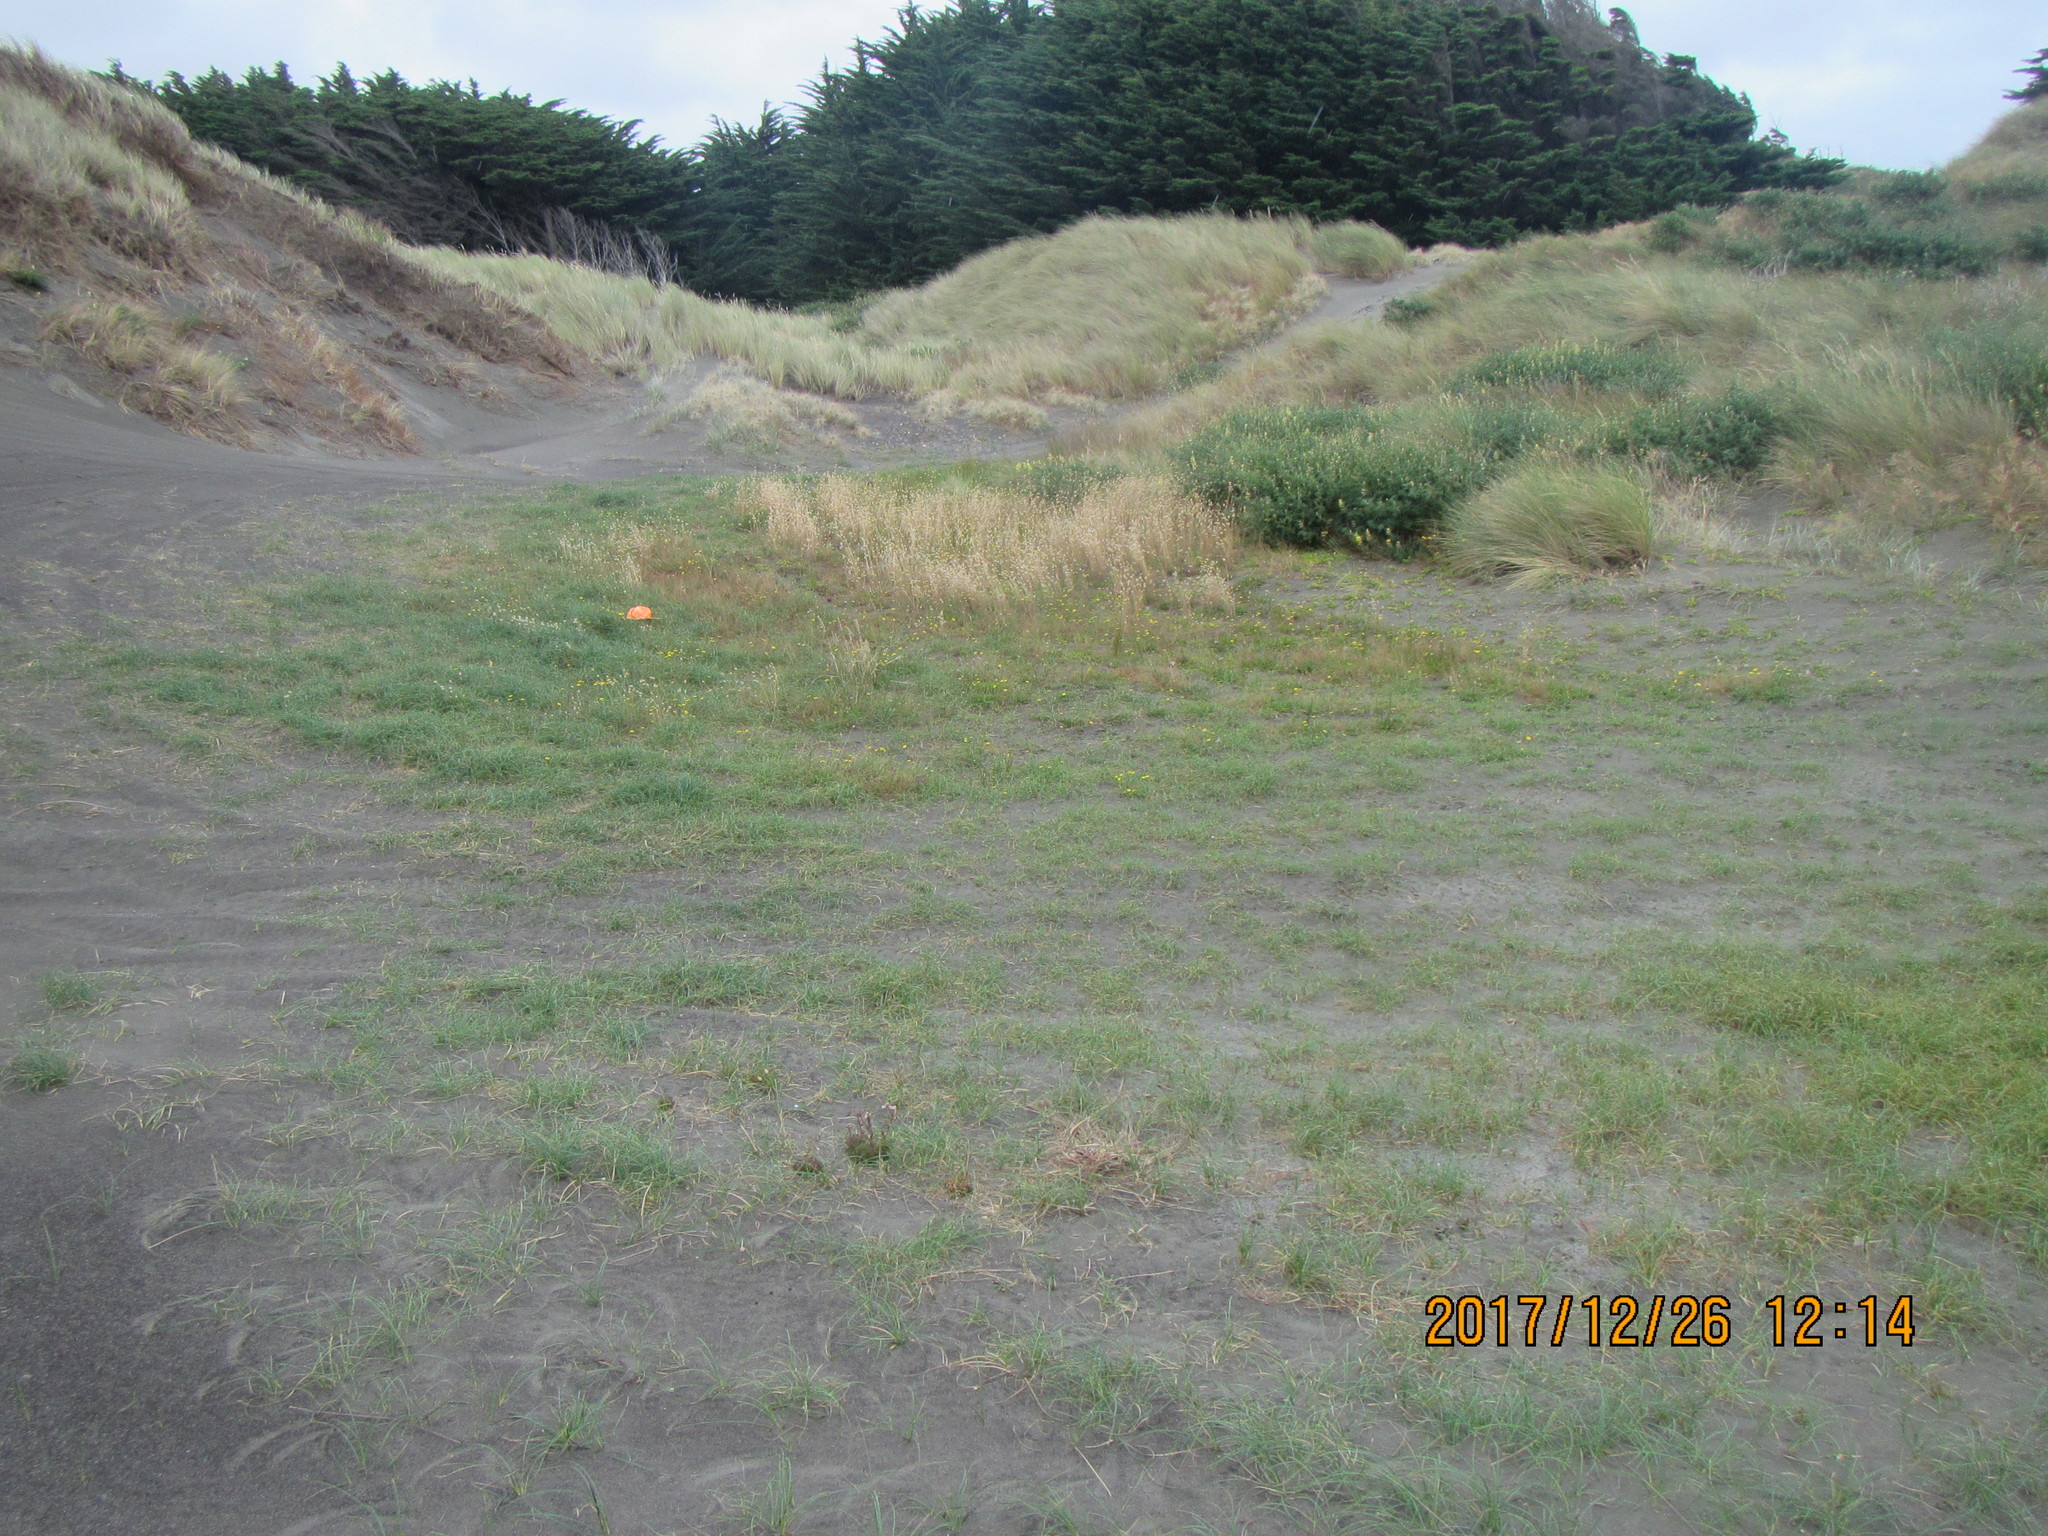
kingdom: Plantae
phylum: Tracheophyta
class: Liliopsida
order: Poales
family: Cyperaceae
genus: Carex
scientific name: Carex pumila
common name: Dwarf sedge
